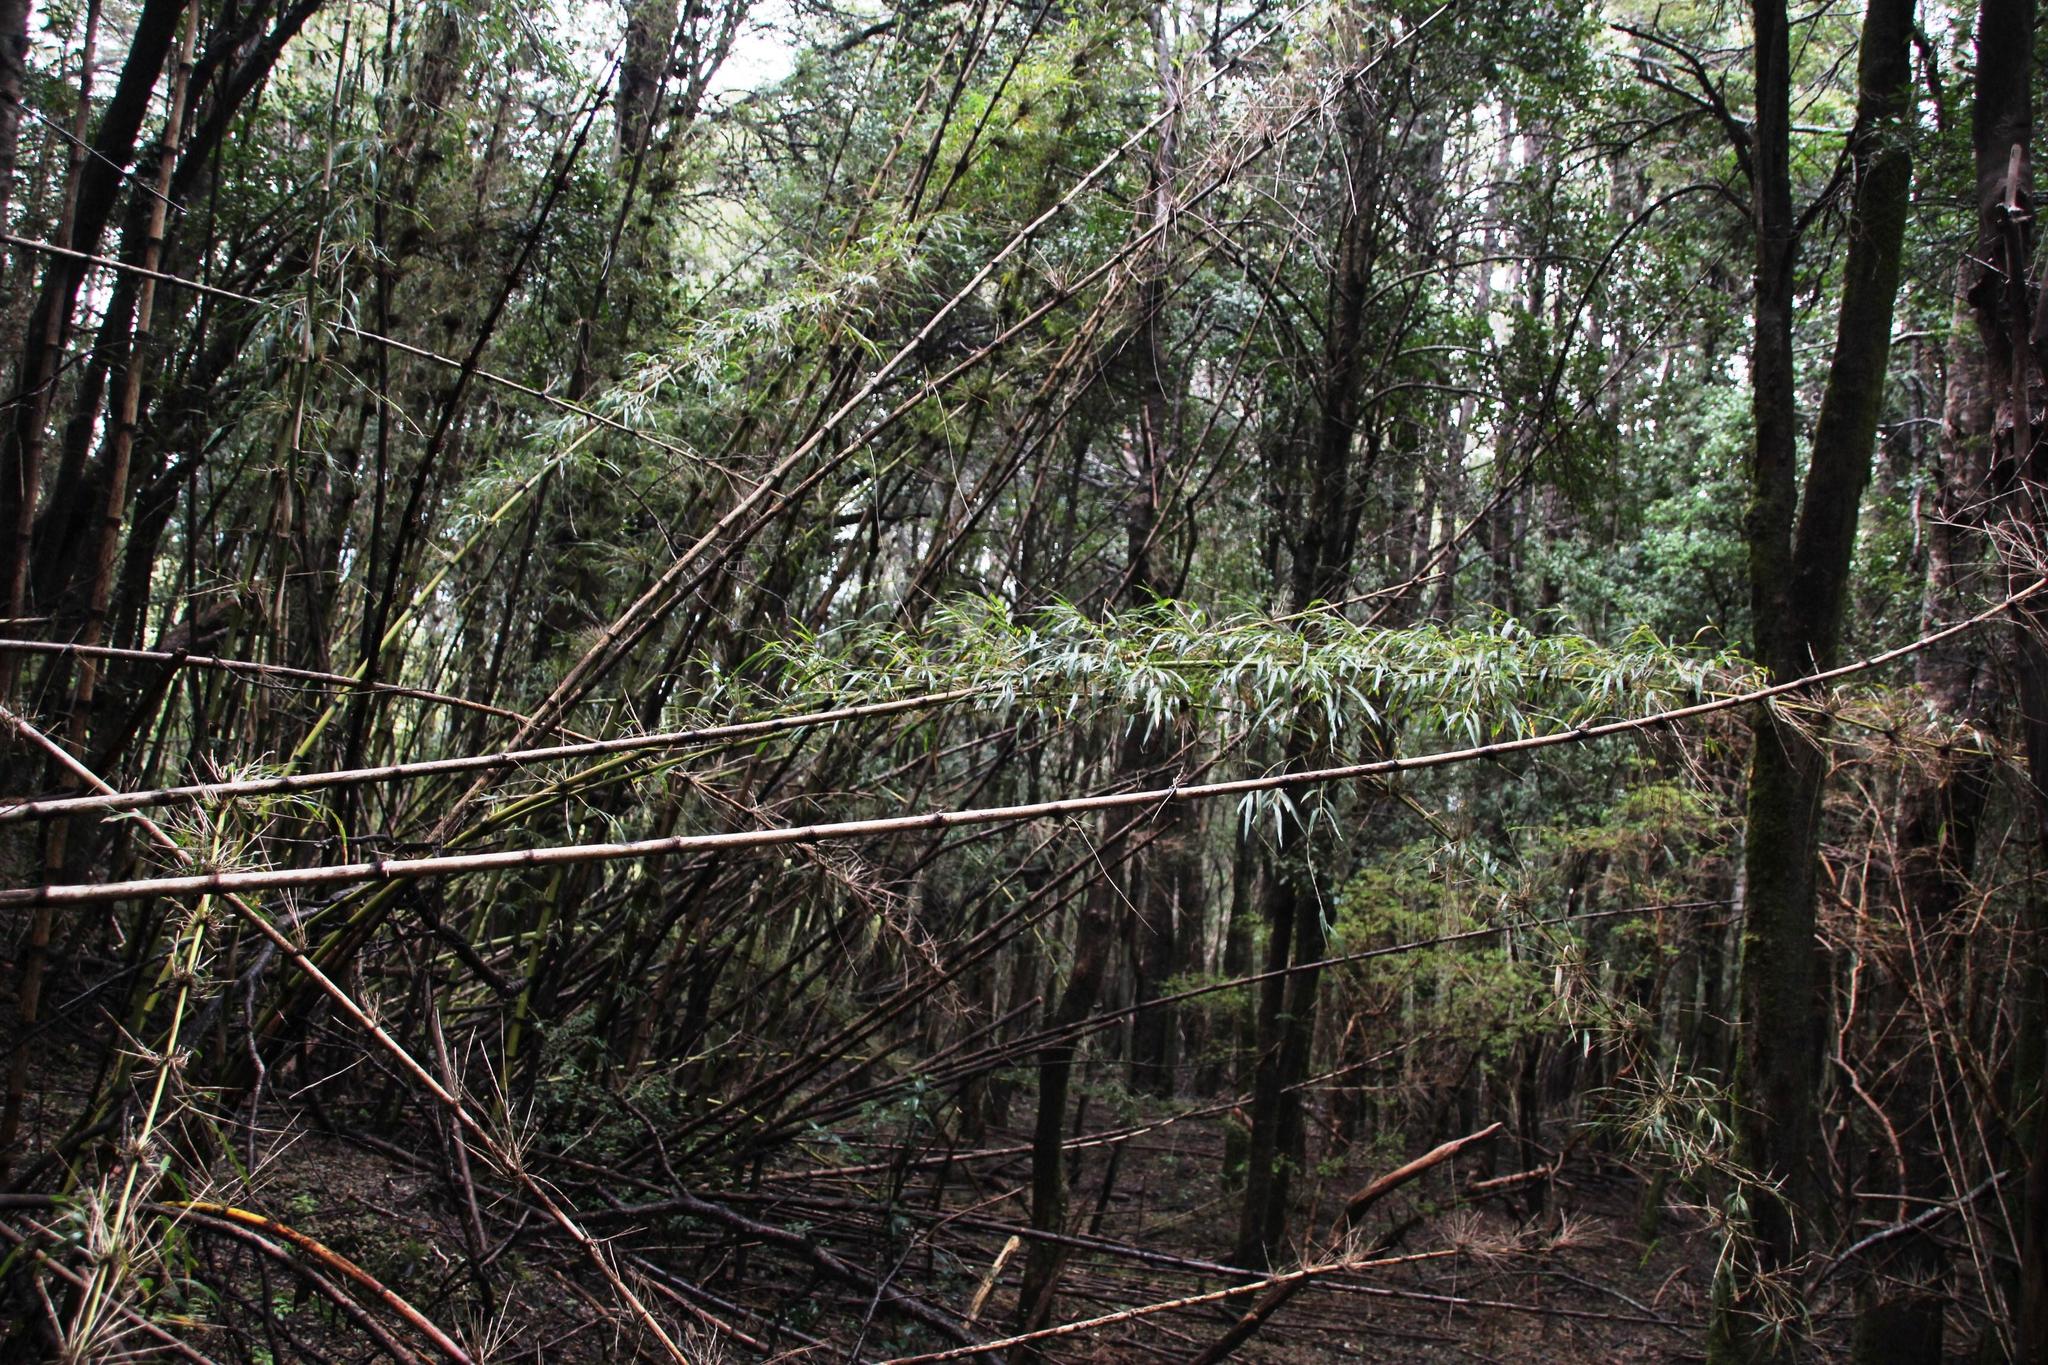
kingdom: Plantae
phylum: Tracheophyta
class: Liliopsida
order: Poales
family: Poaceae
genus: Chusquea
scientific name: Chusquea quila
